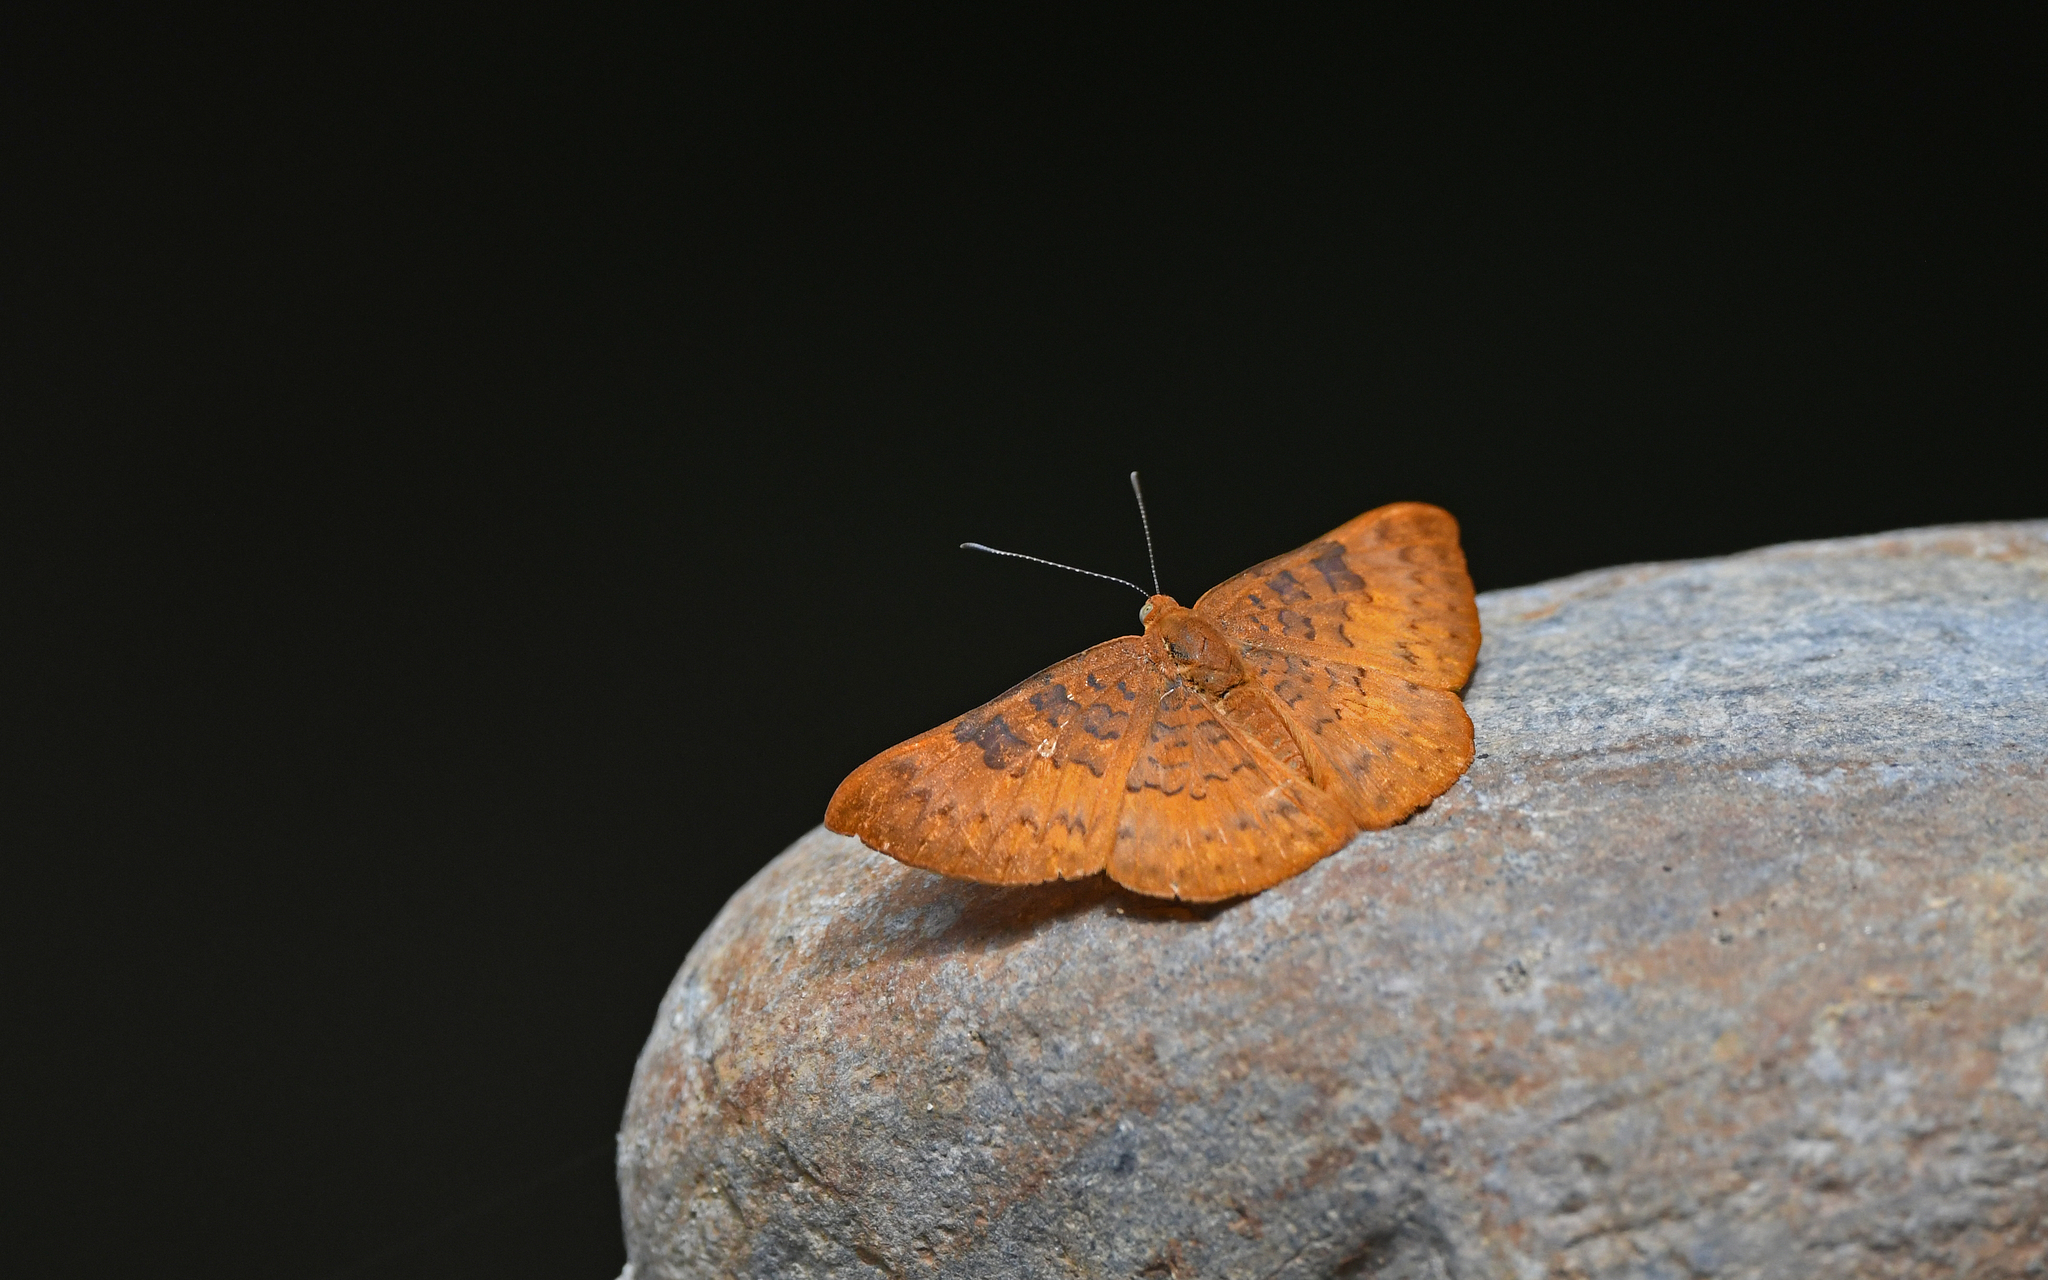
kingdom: Animalia
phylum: Arthropoda
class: Insecta
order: Lepidoptera
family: Lycaenidae
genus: Emesis
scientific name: Emesis mandana
